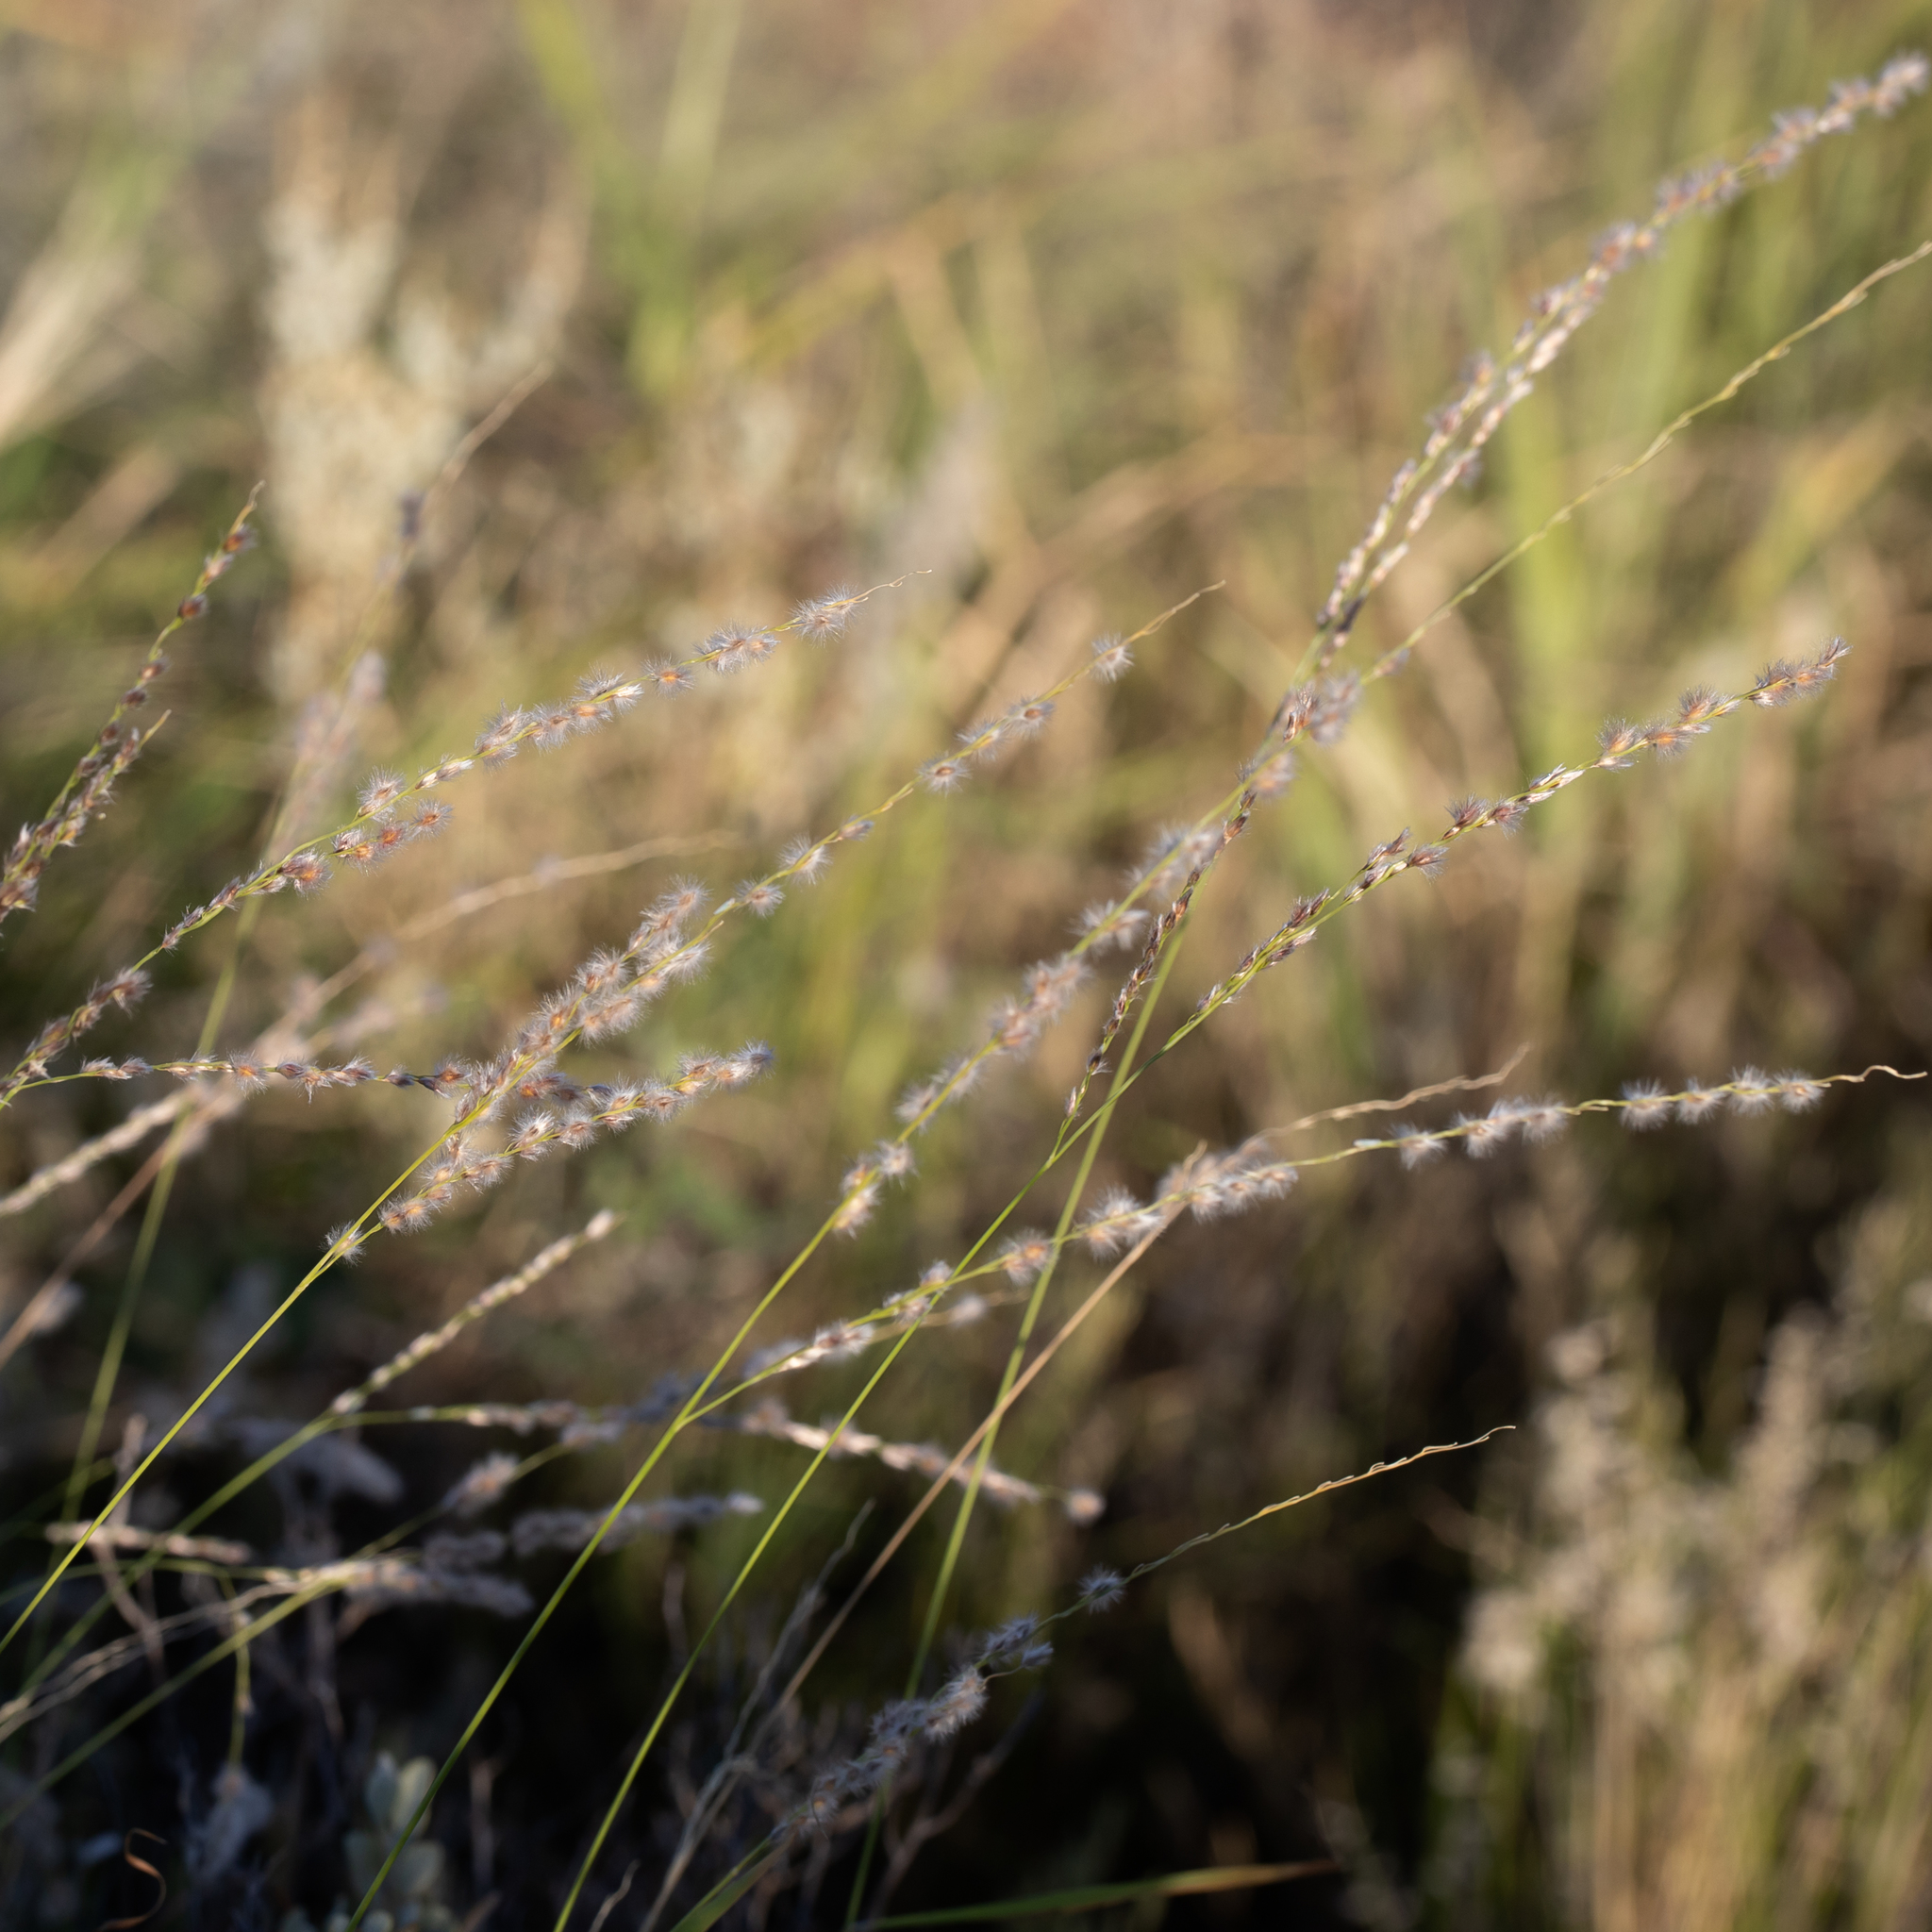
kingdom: Plantae
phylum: Tracheophyta
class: Liliopsida
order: Poales
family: Poaceae
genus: Digitaria
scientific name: Digitaria brownii
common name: Cotton grass
